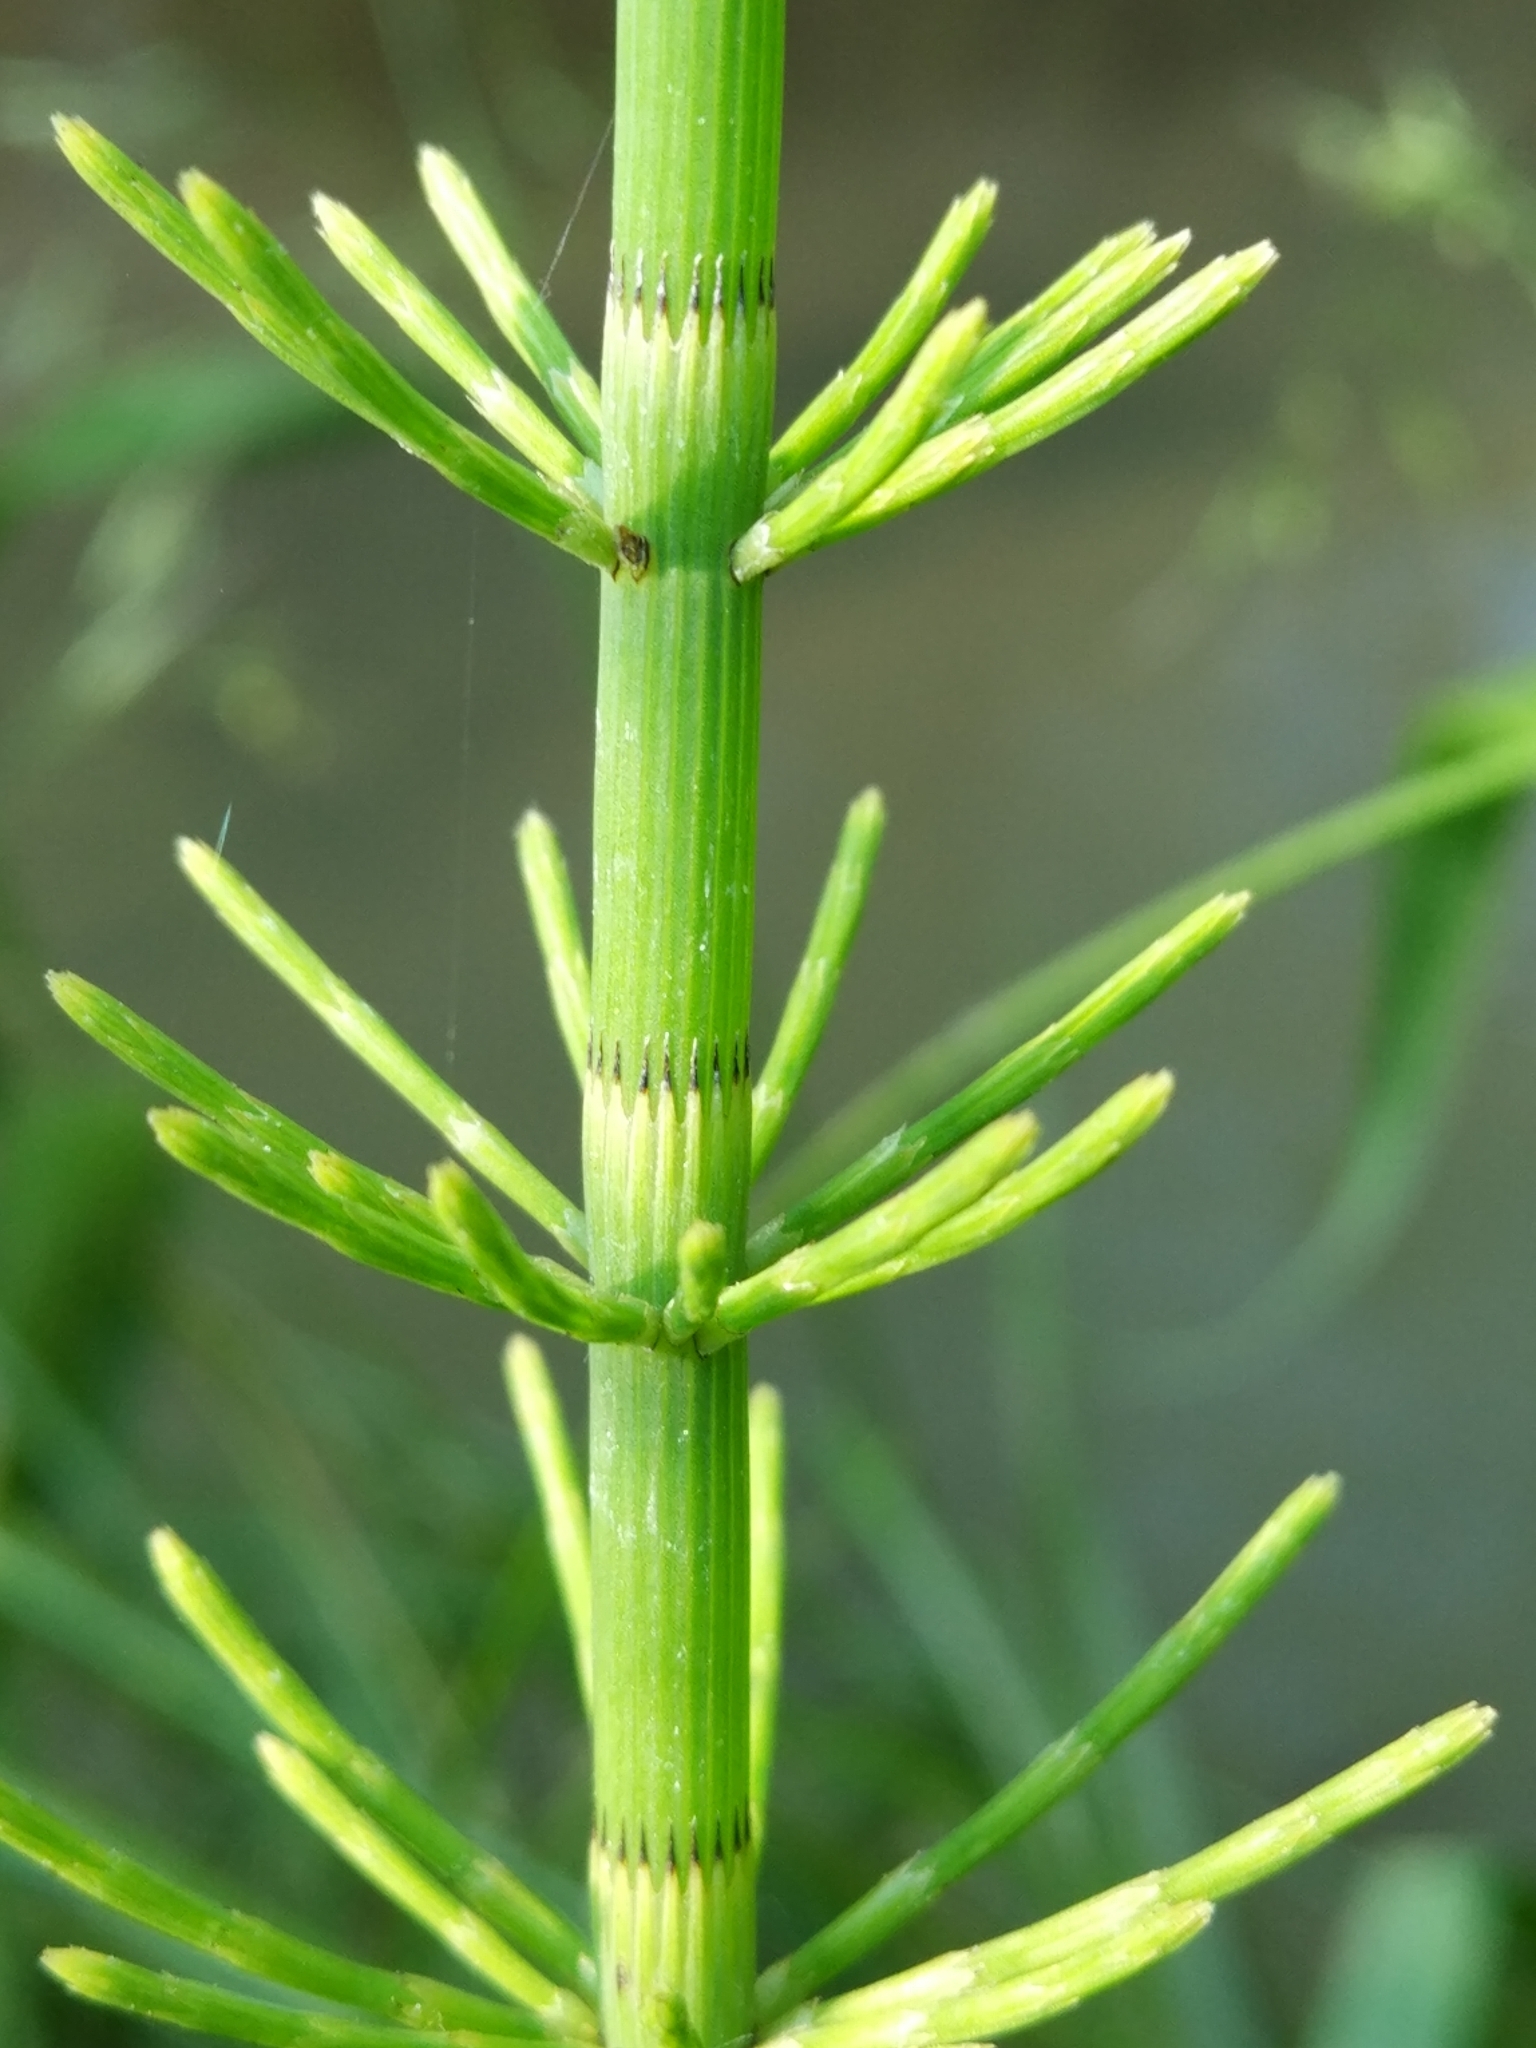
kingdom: Plantae
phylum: Tracheophyta
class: Polypodiopsida
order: Equisetales
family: Equisetaceae
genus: Equisetum
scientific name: Equisetum fluviatile
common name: Water horsetail
